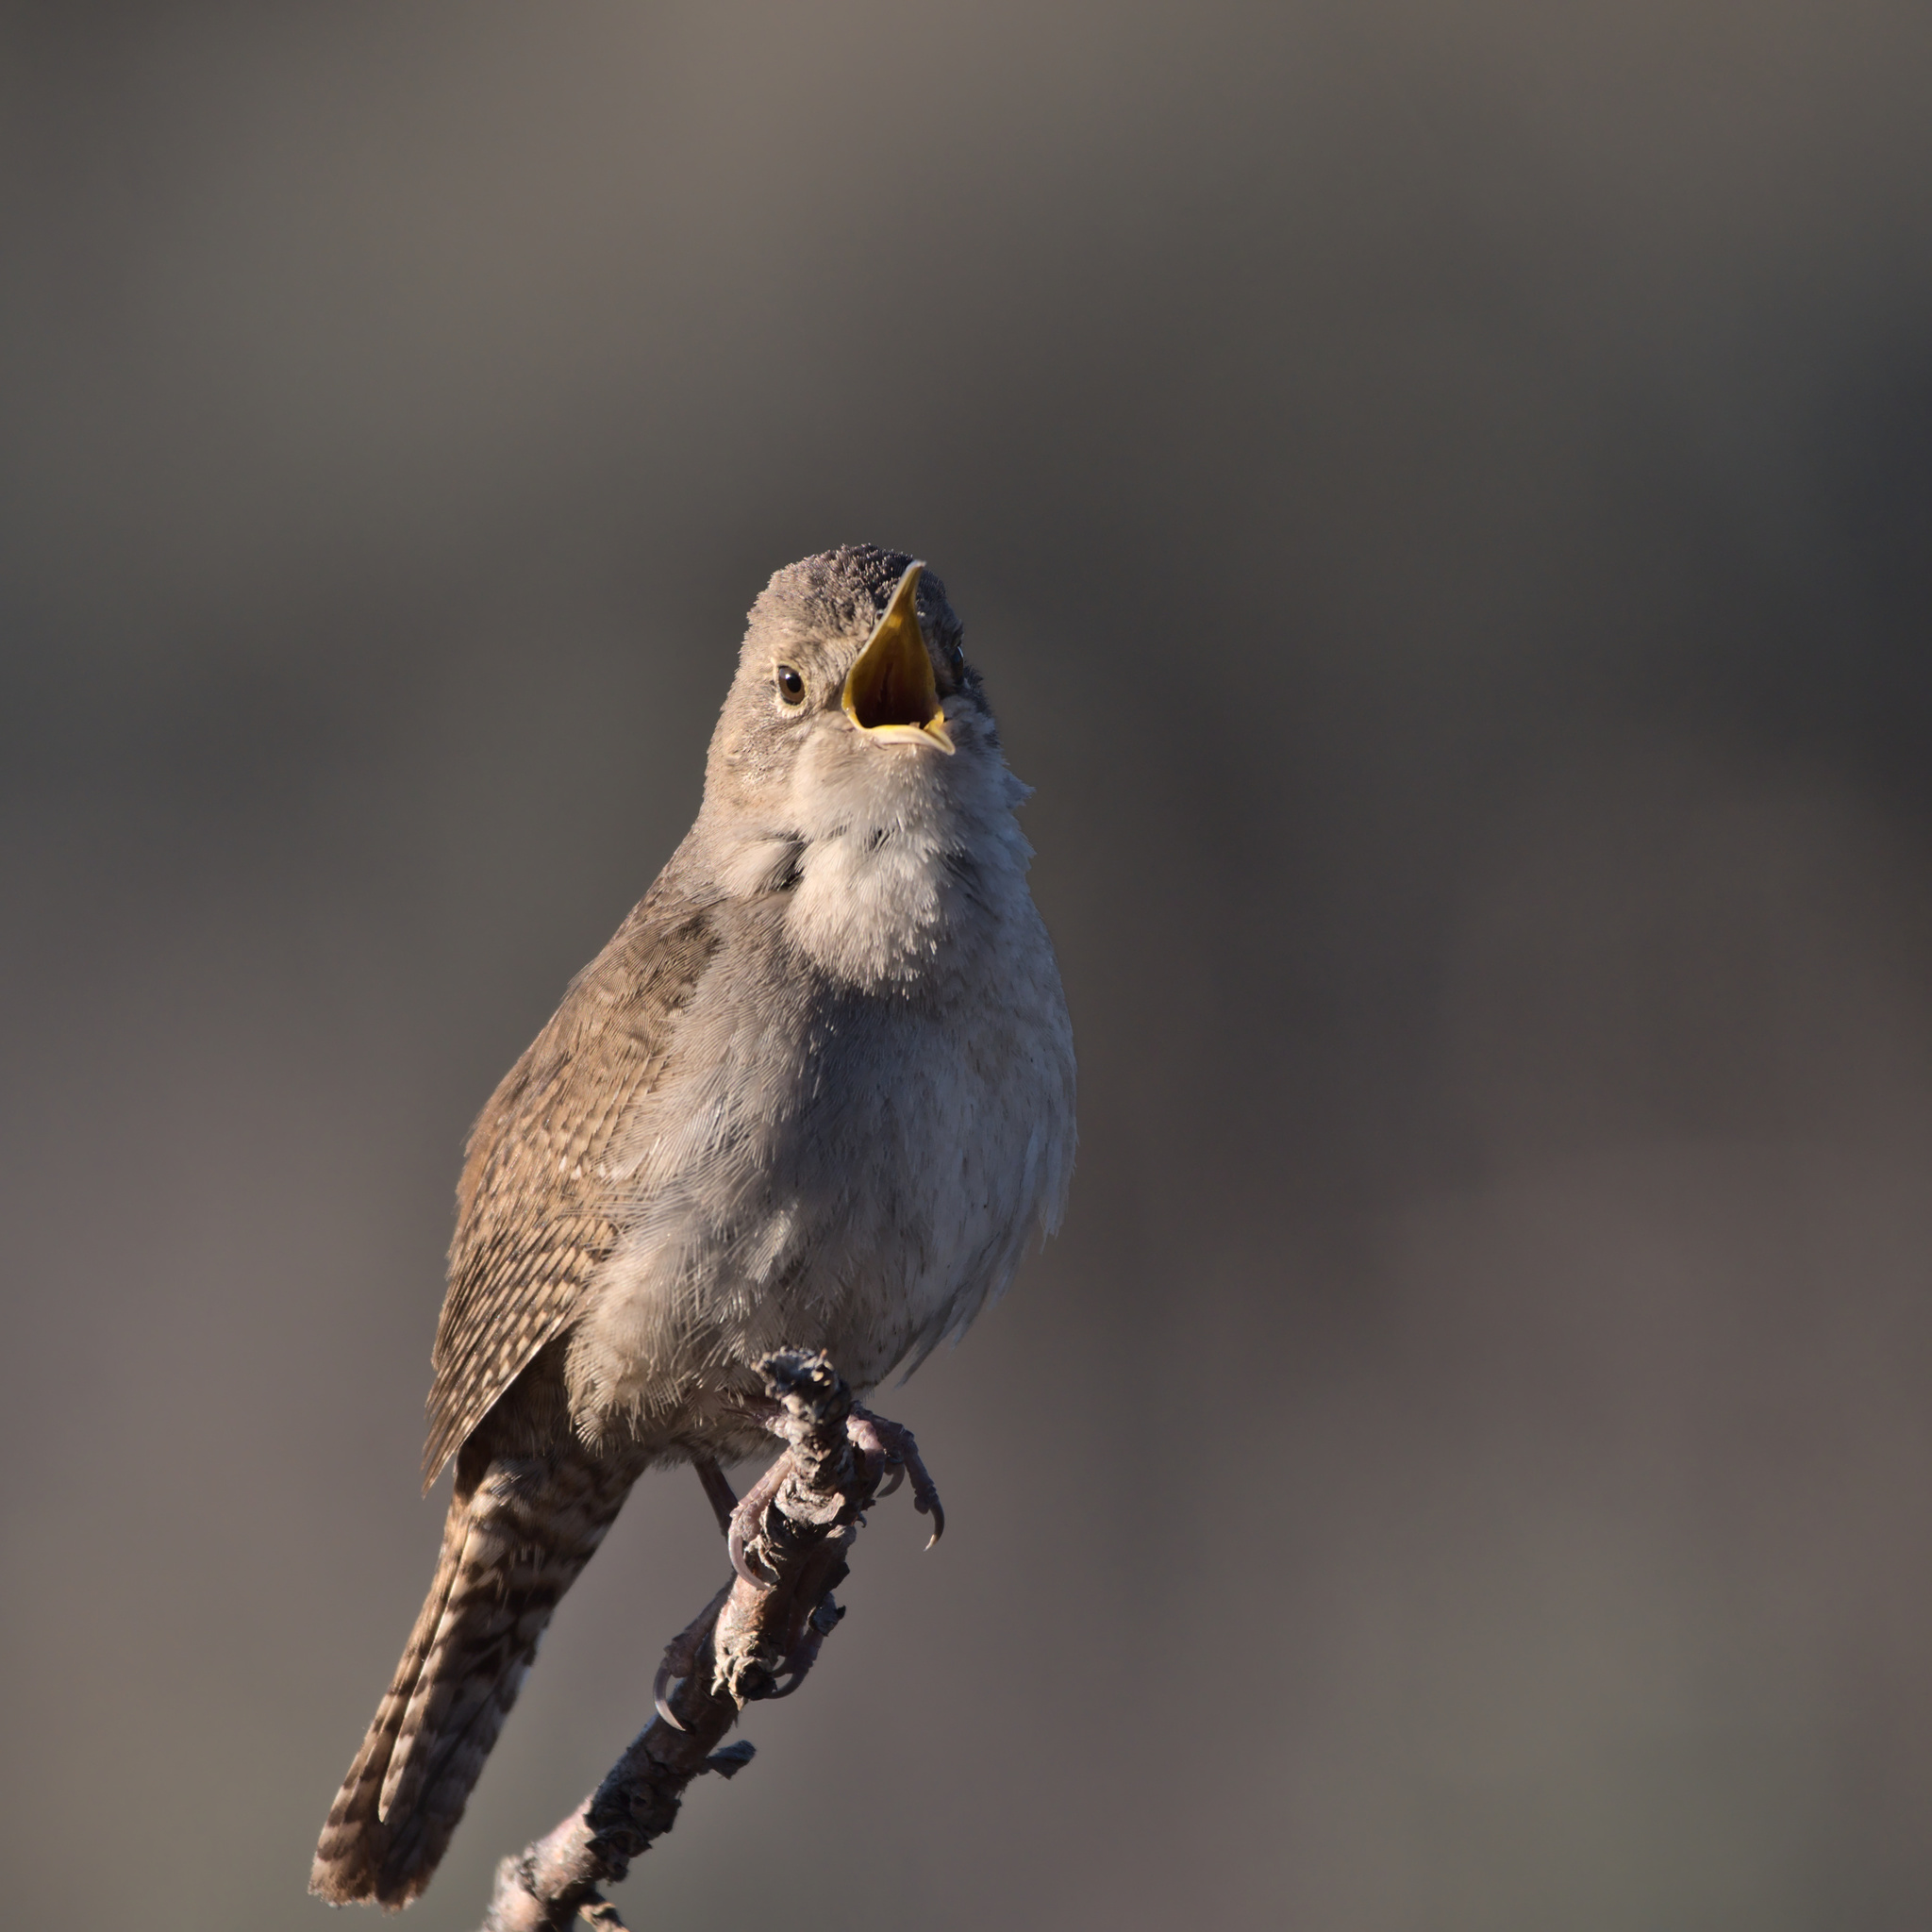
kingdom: Animalia
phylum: Chordata
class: Aves
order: Passeriformes
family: Troglodytidae
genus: Troglodytes
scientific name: Troglodytes aedon
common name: House wren
